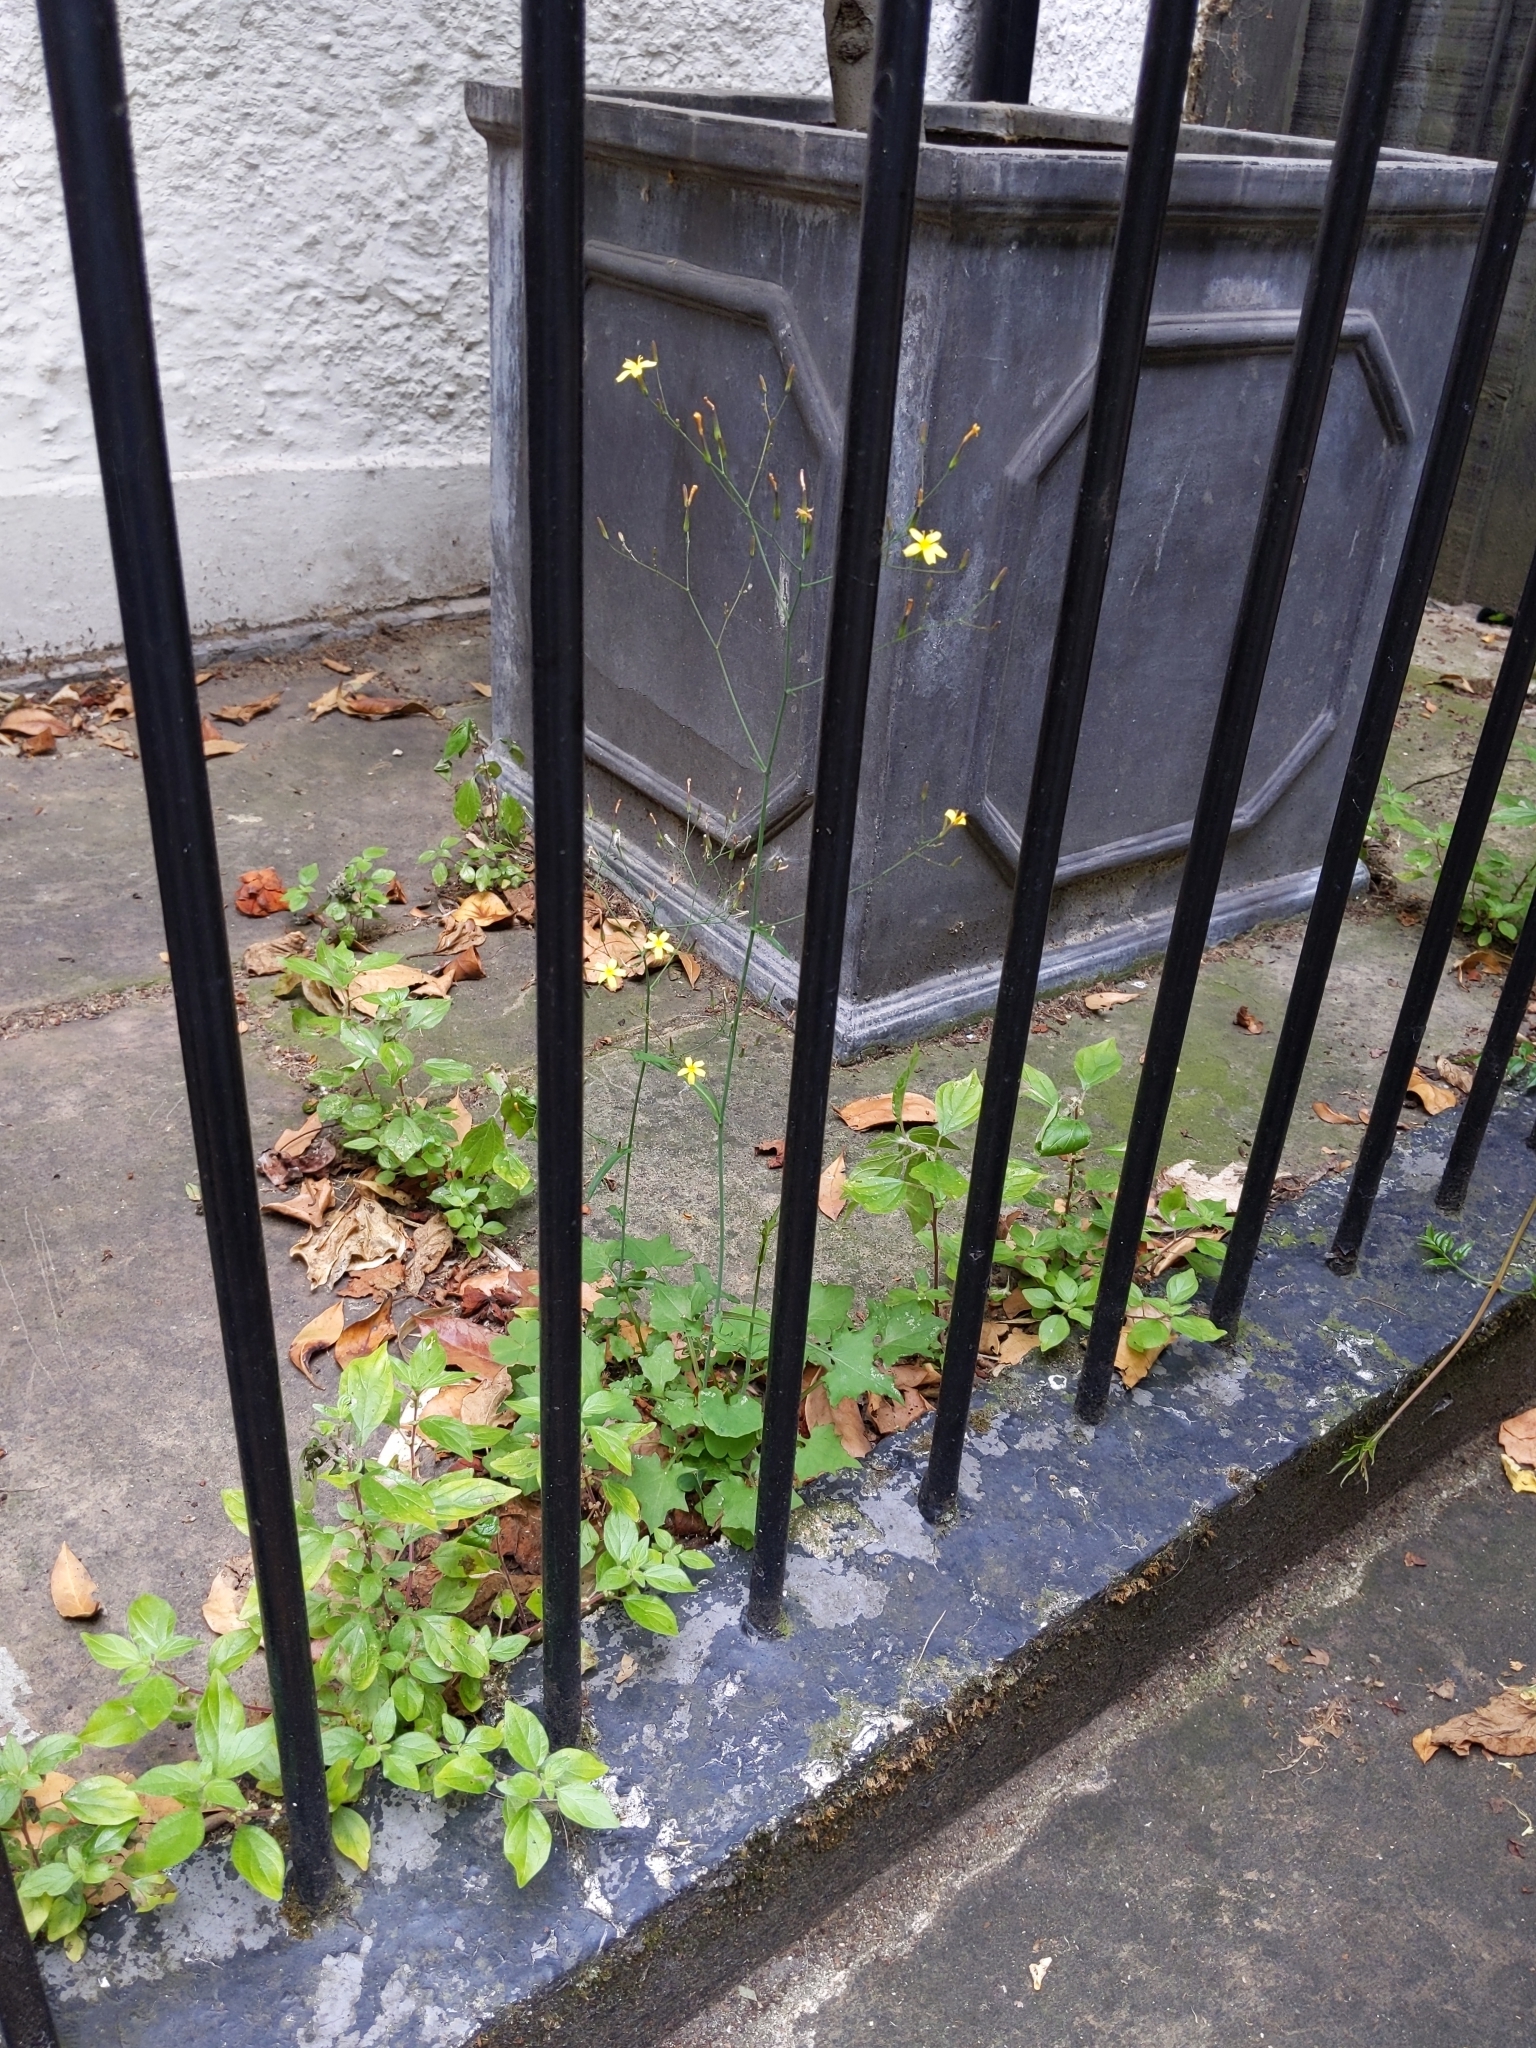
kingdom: Plantae
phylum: Tracheophyta
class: Magnoliopsida
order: Asterales
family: Asteraceae
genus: Mycelis
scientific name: Mycelis muralis
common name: Wall lettuce
